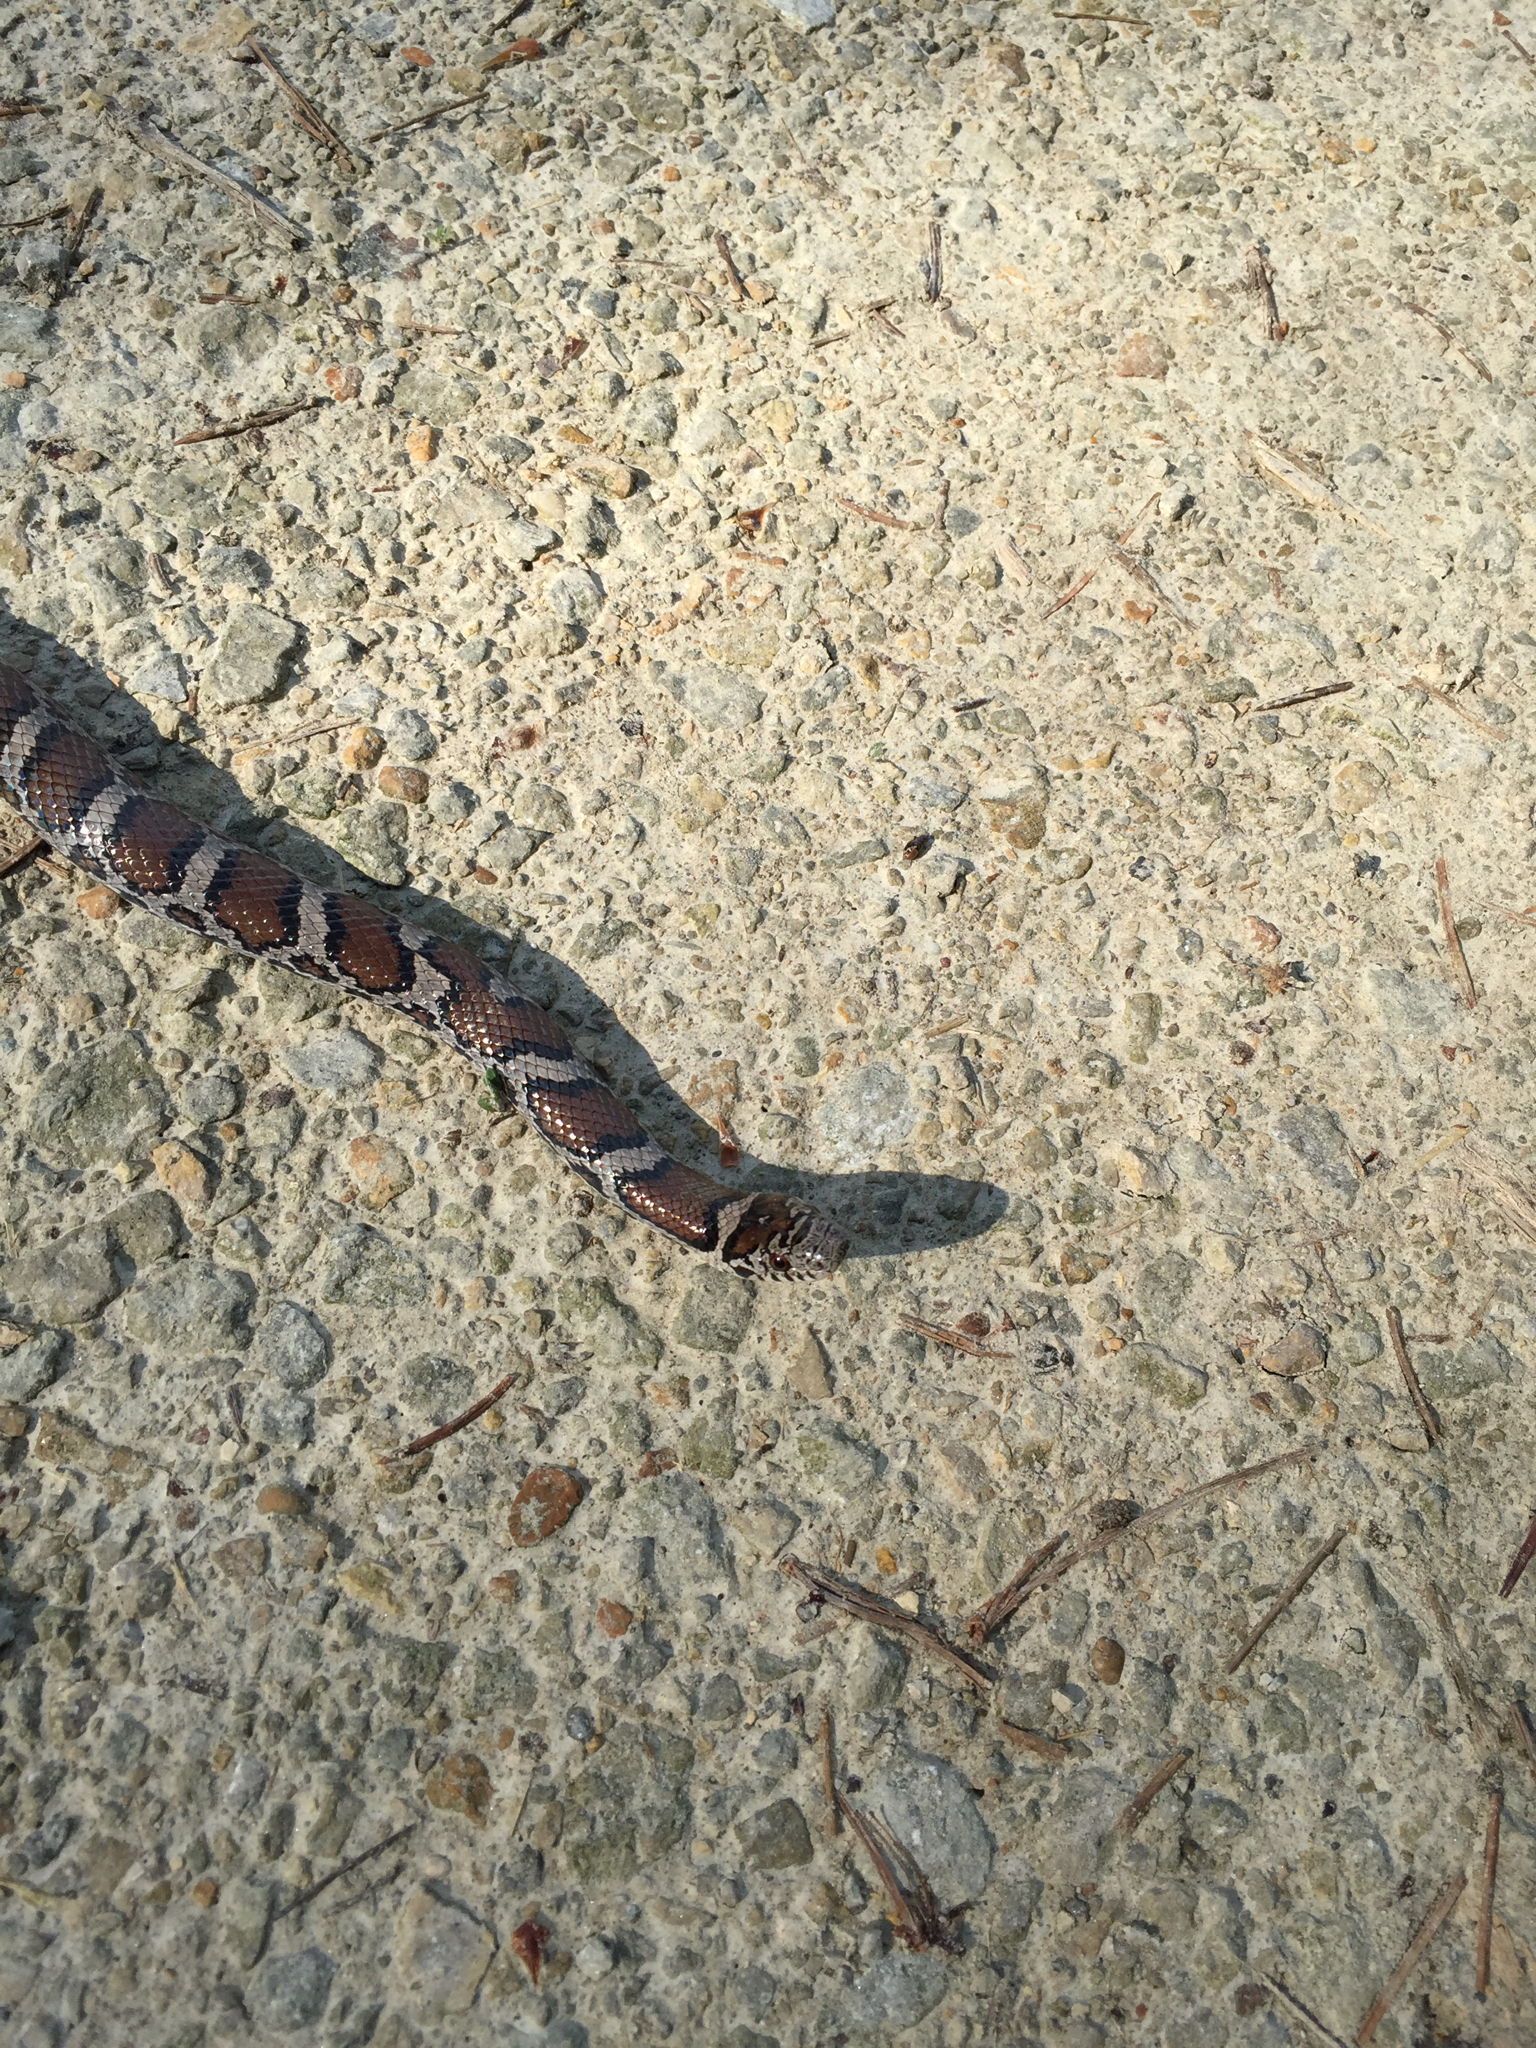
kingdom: Animalia
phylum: Chordata
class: Squamata
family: Colubridae
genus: Lampropeltis
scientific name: Lampropeltis triangulum
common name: Eastern milksnake
